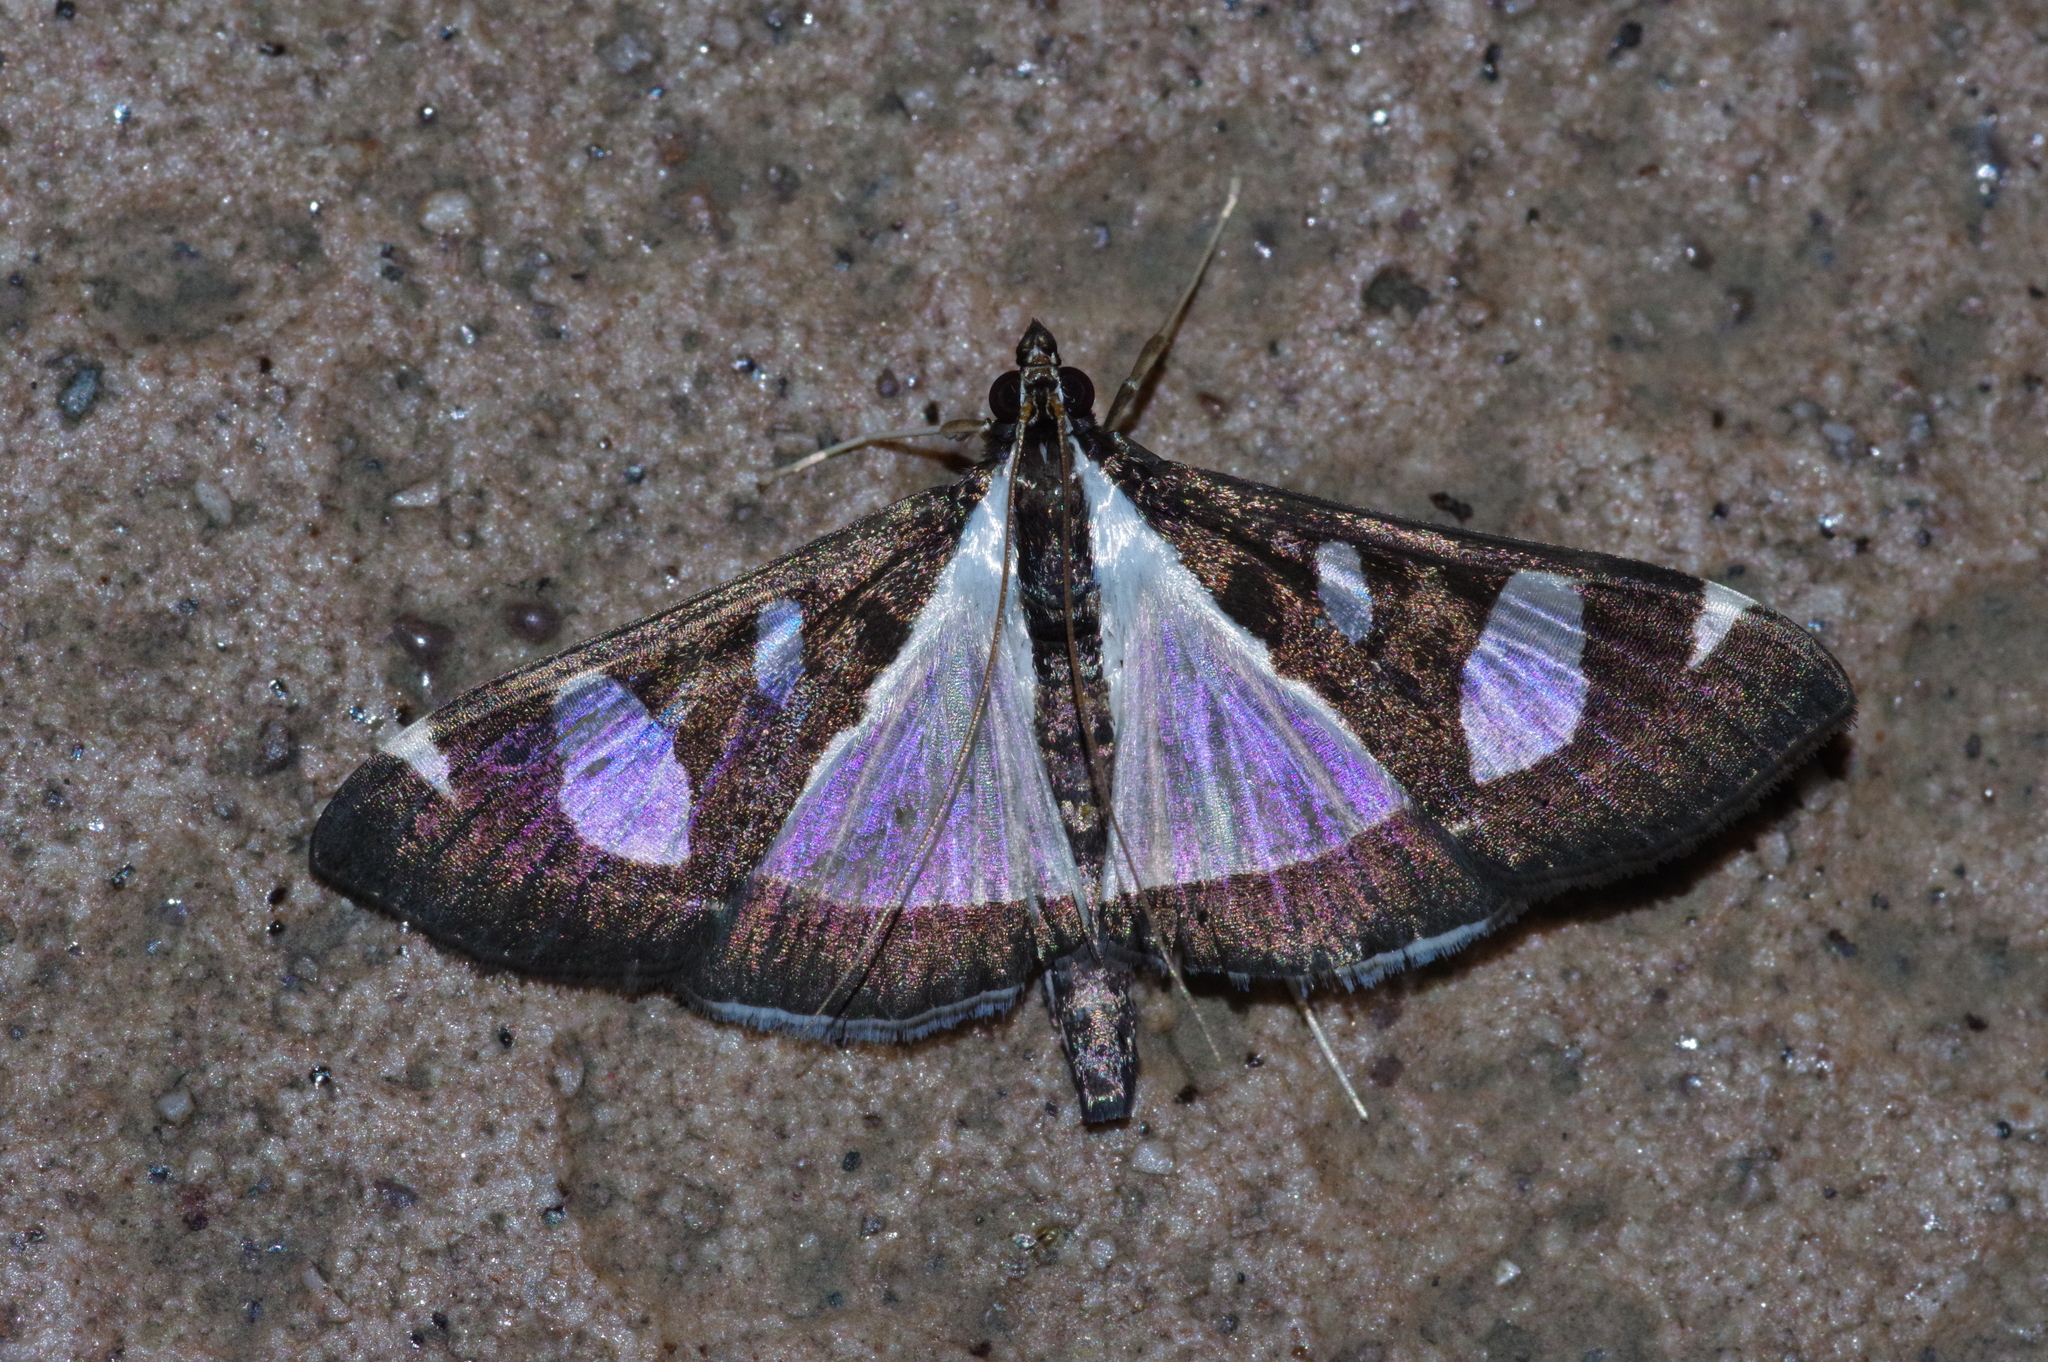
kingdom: Animalia
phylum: Arthropoda
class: Insecta
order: Lepidoptera
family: Crambidae
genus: Glyphodes
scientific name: Glyphodes actorionalis
